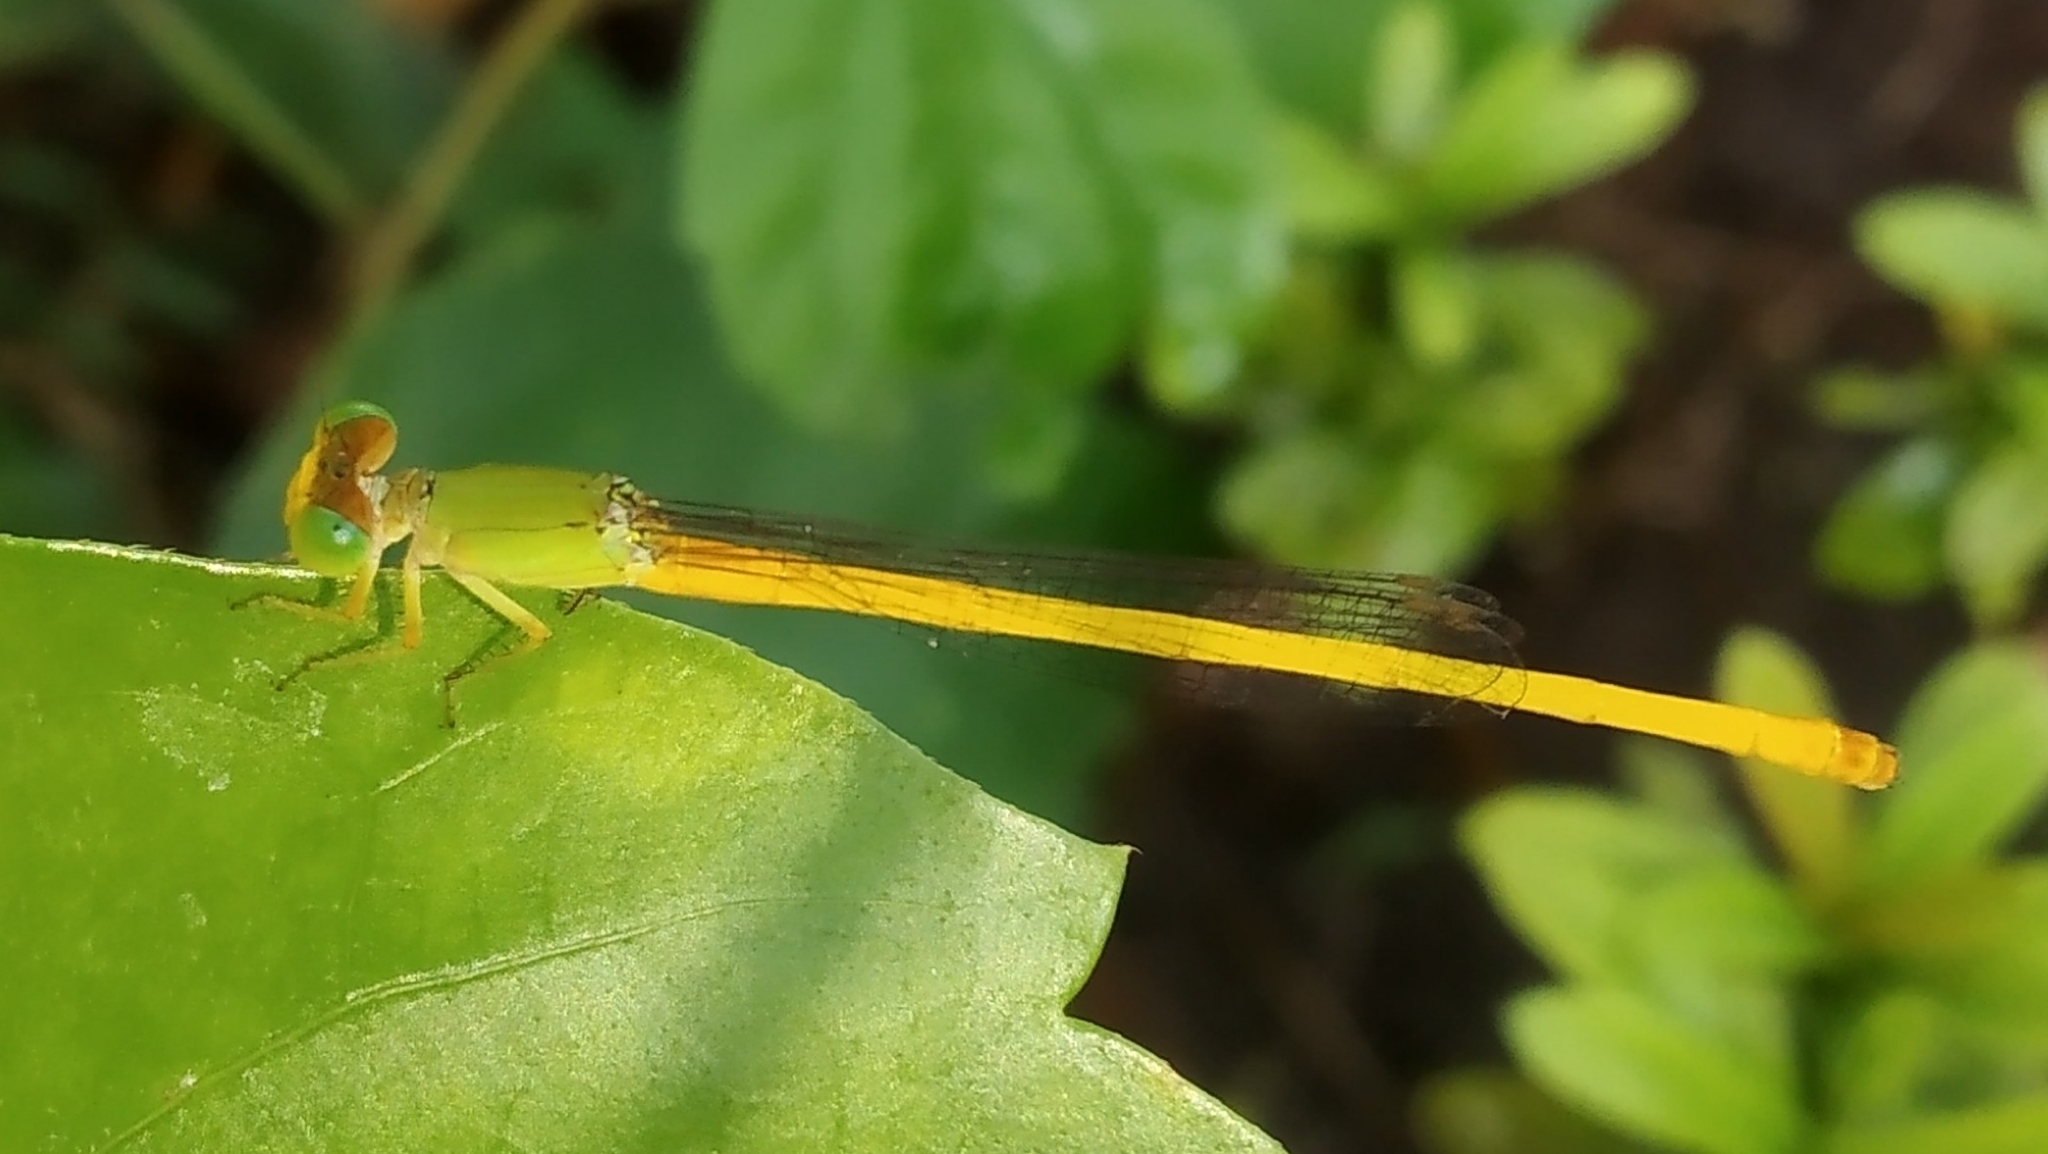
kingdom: Animalia
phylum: Arthropoda
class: Insecta
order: Odonata
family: Coenagrionidae
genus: Ceriagrion
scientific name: Ceriagrion coromandelianum
